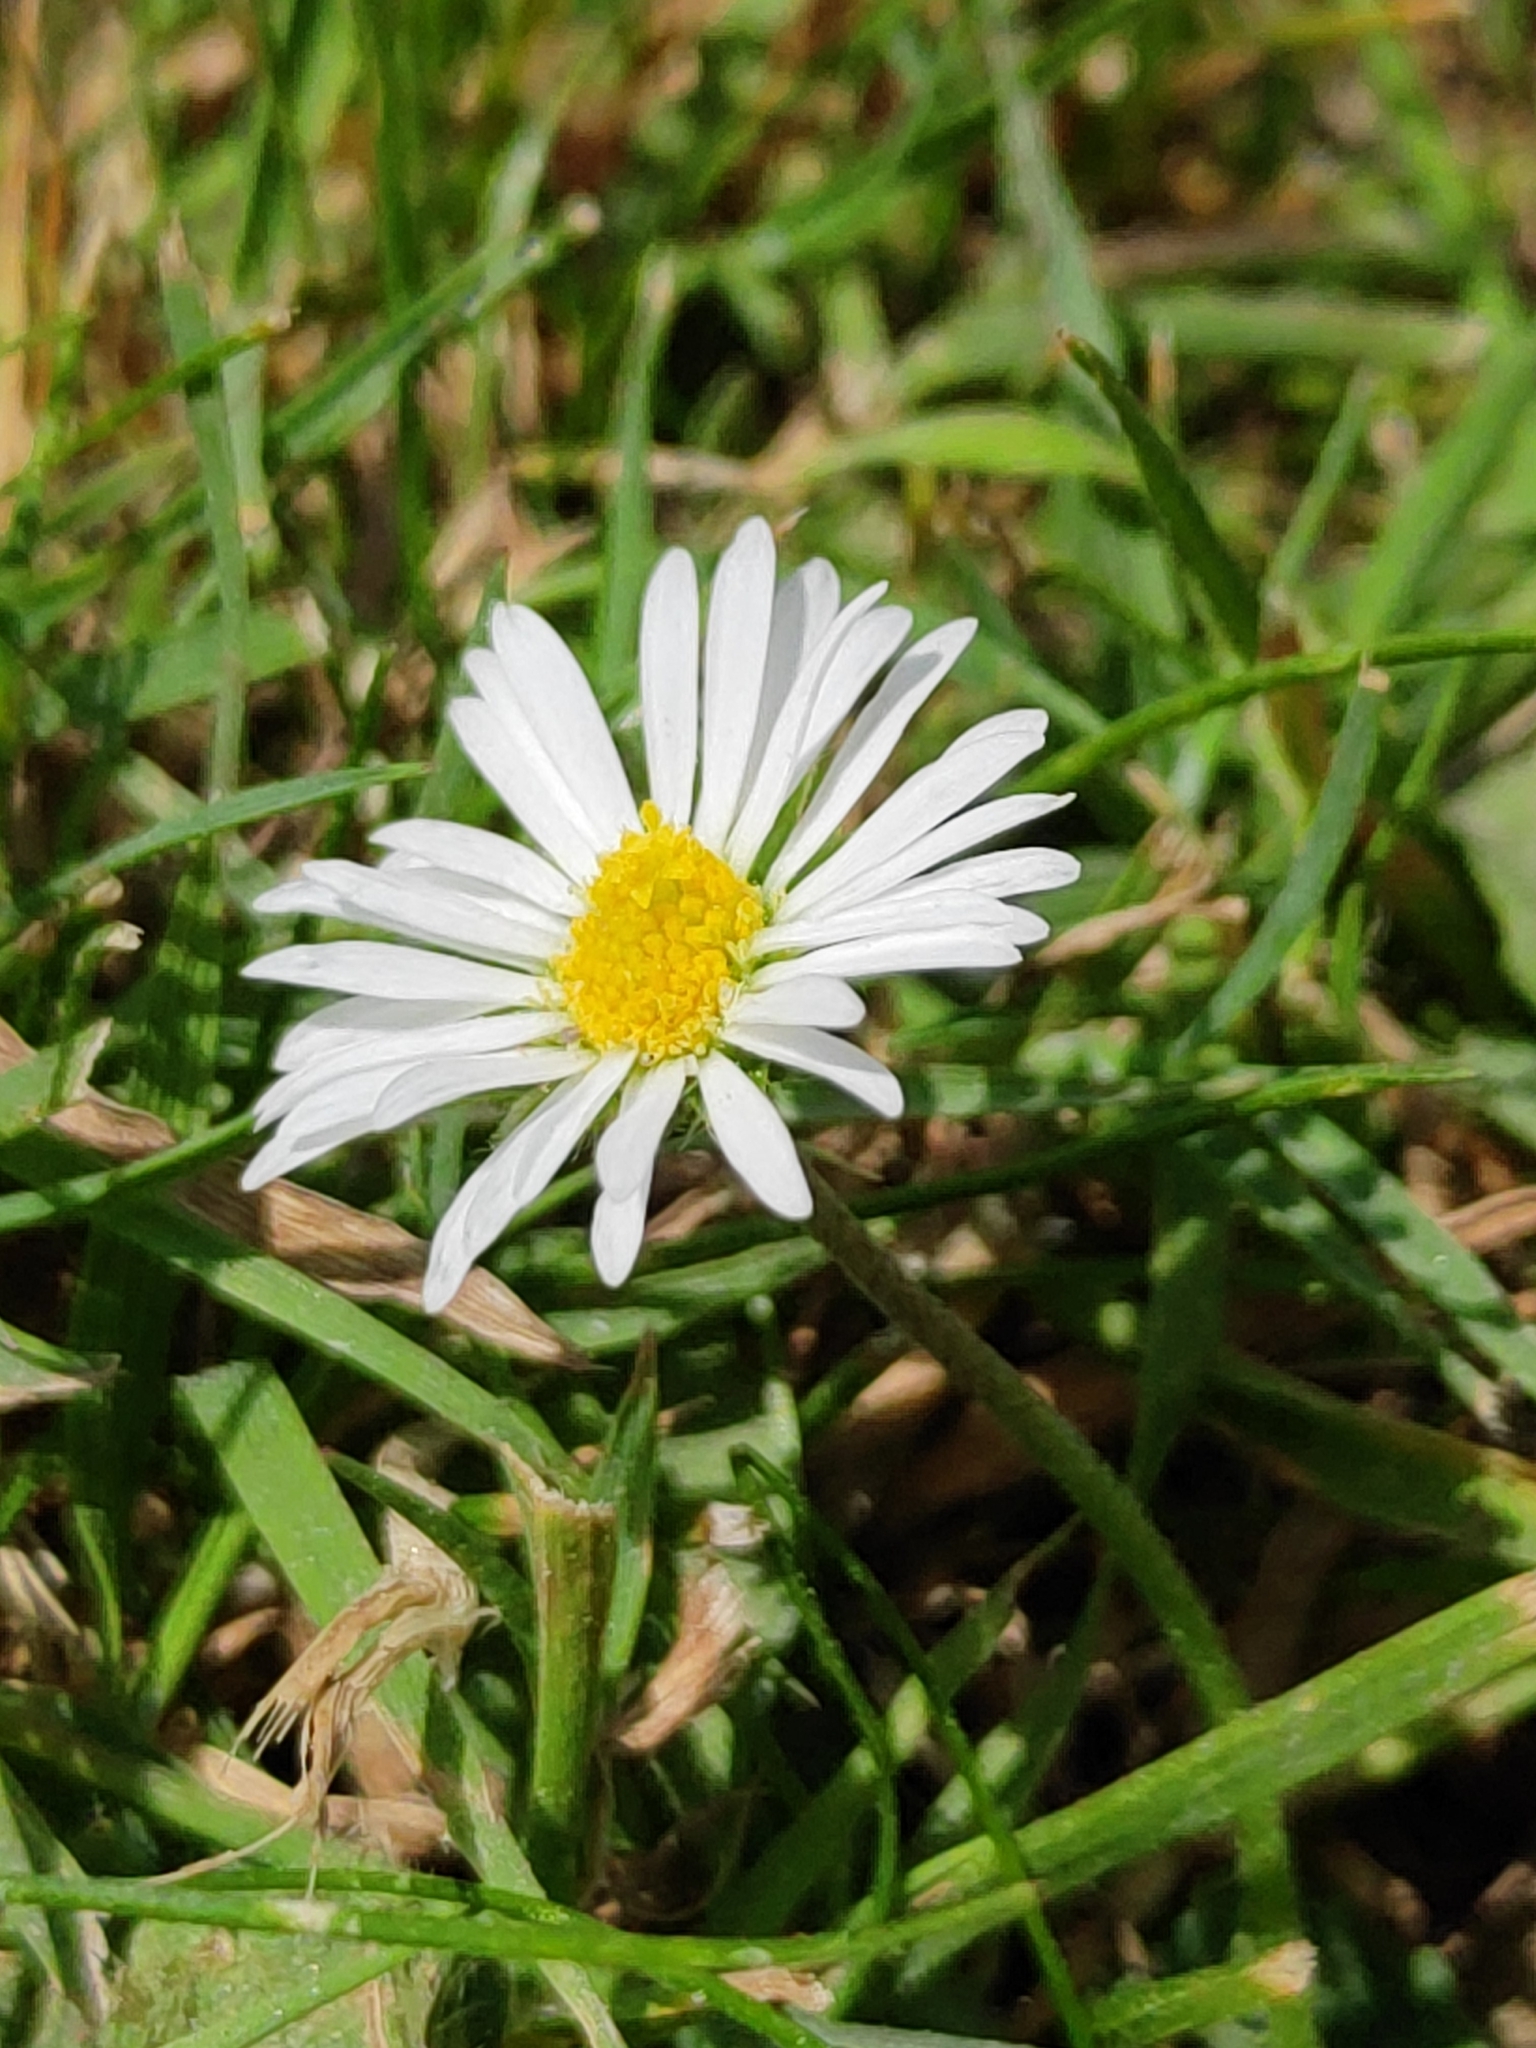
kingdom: Plantae
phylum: Tracheophyta
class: Magnoliopsida
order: Asterales
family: Asteraceae
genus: Bellis
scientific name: Bellis perennis
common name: Lawndaisy
